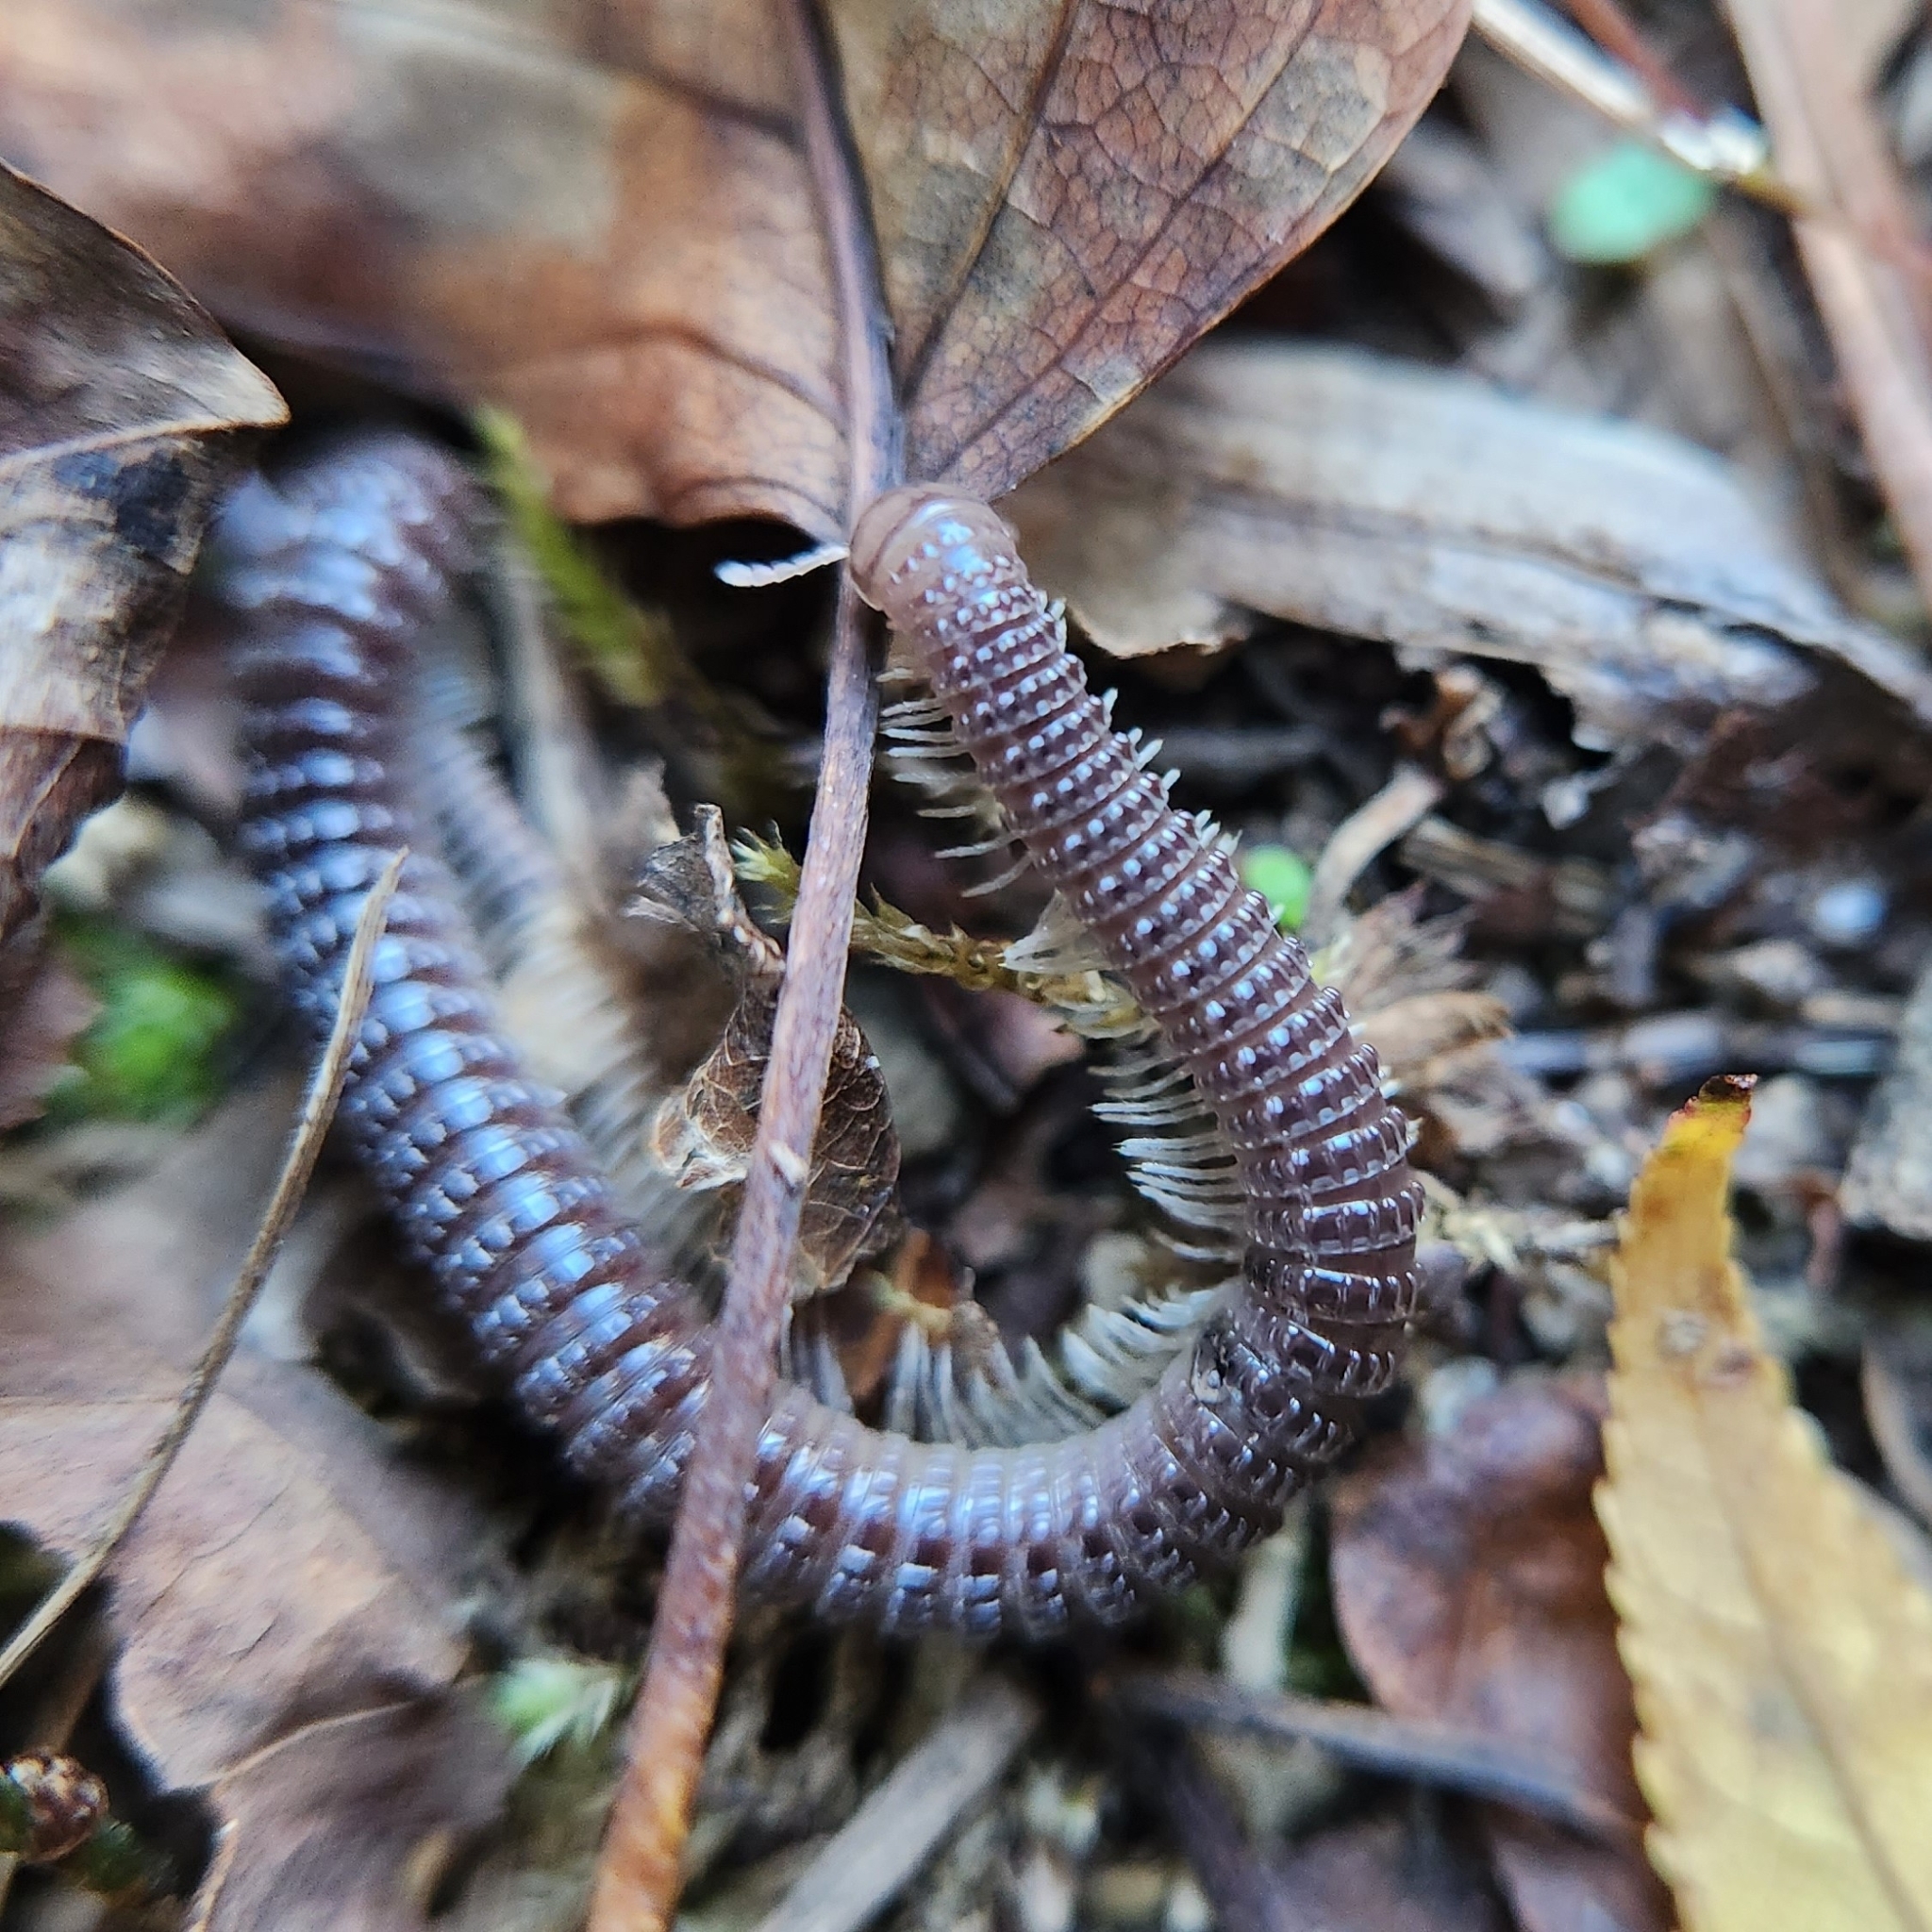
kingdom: Animalia
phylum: Arthropoda
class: Diplopoda
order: Spirostreptida
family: Cambalidae
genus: Cambala
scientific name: Cambala annulata
